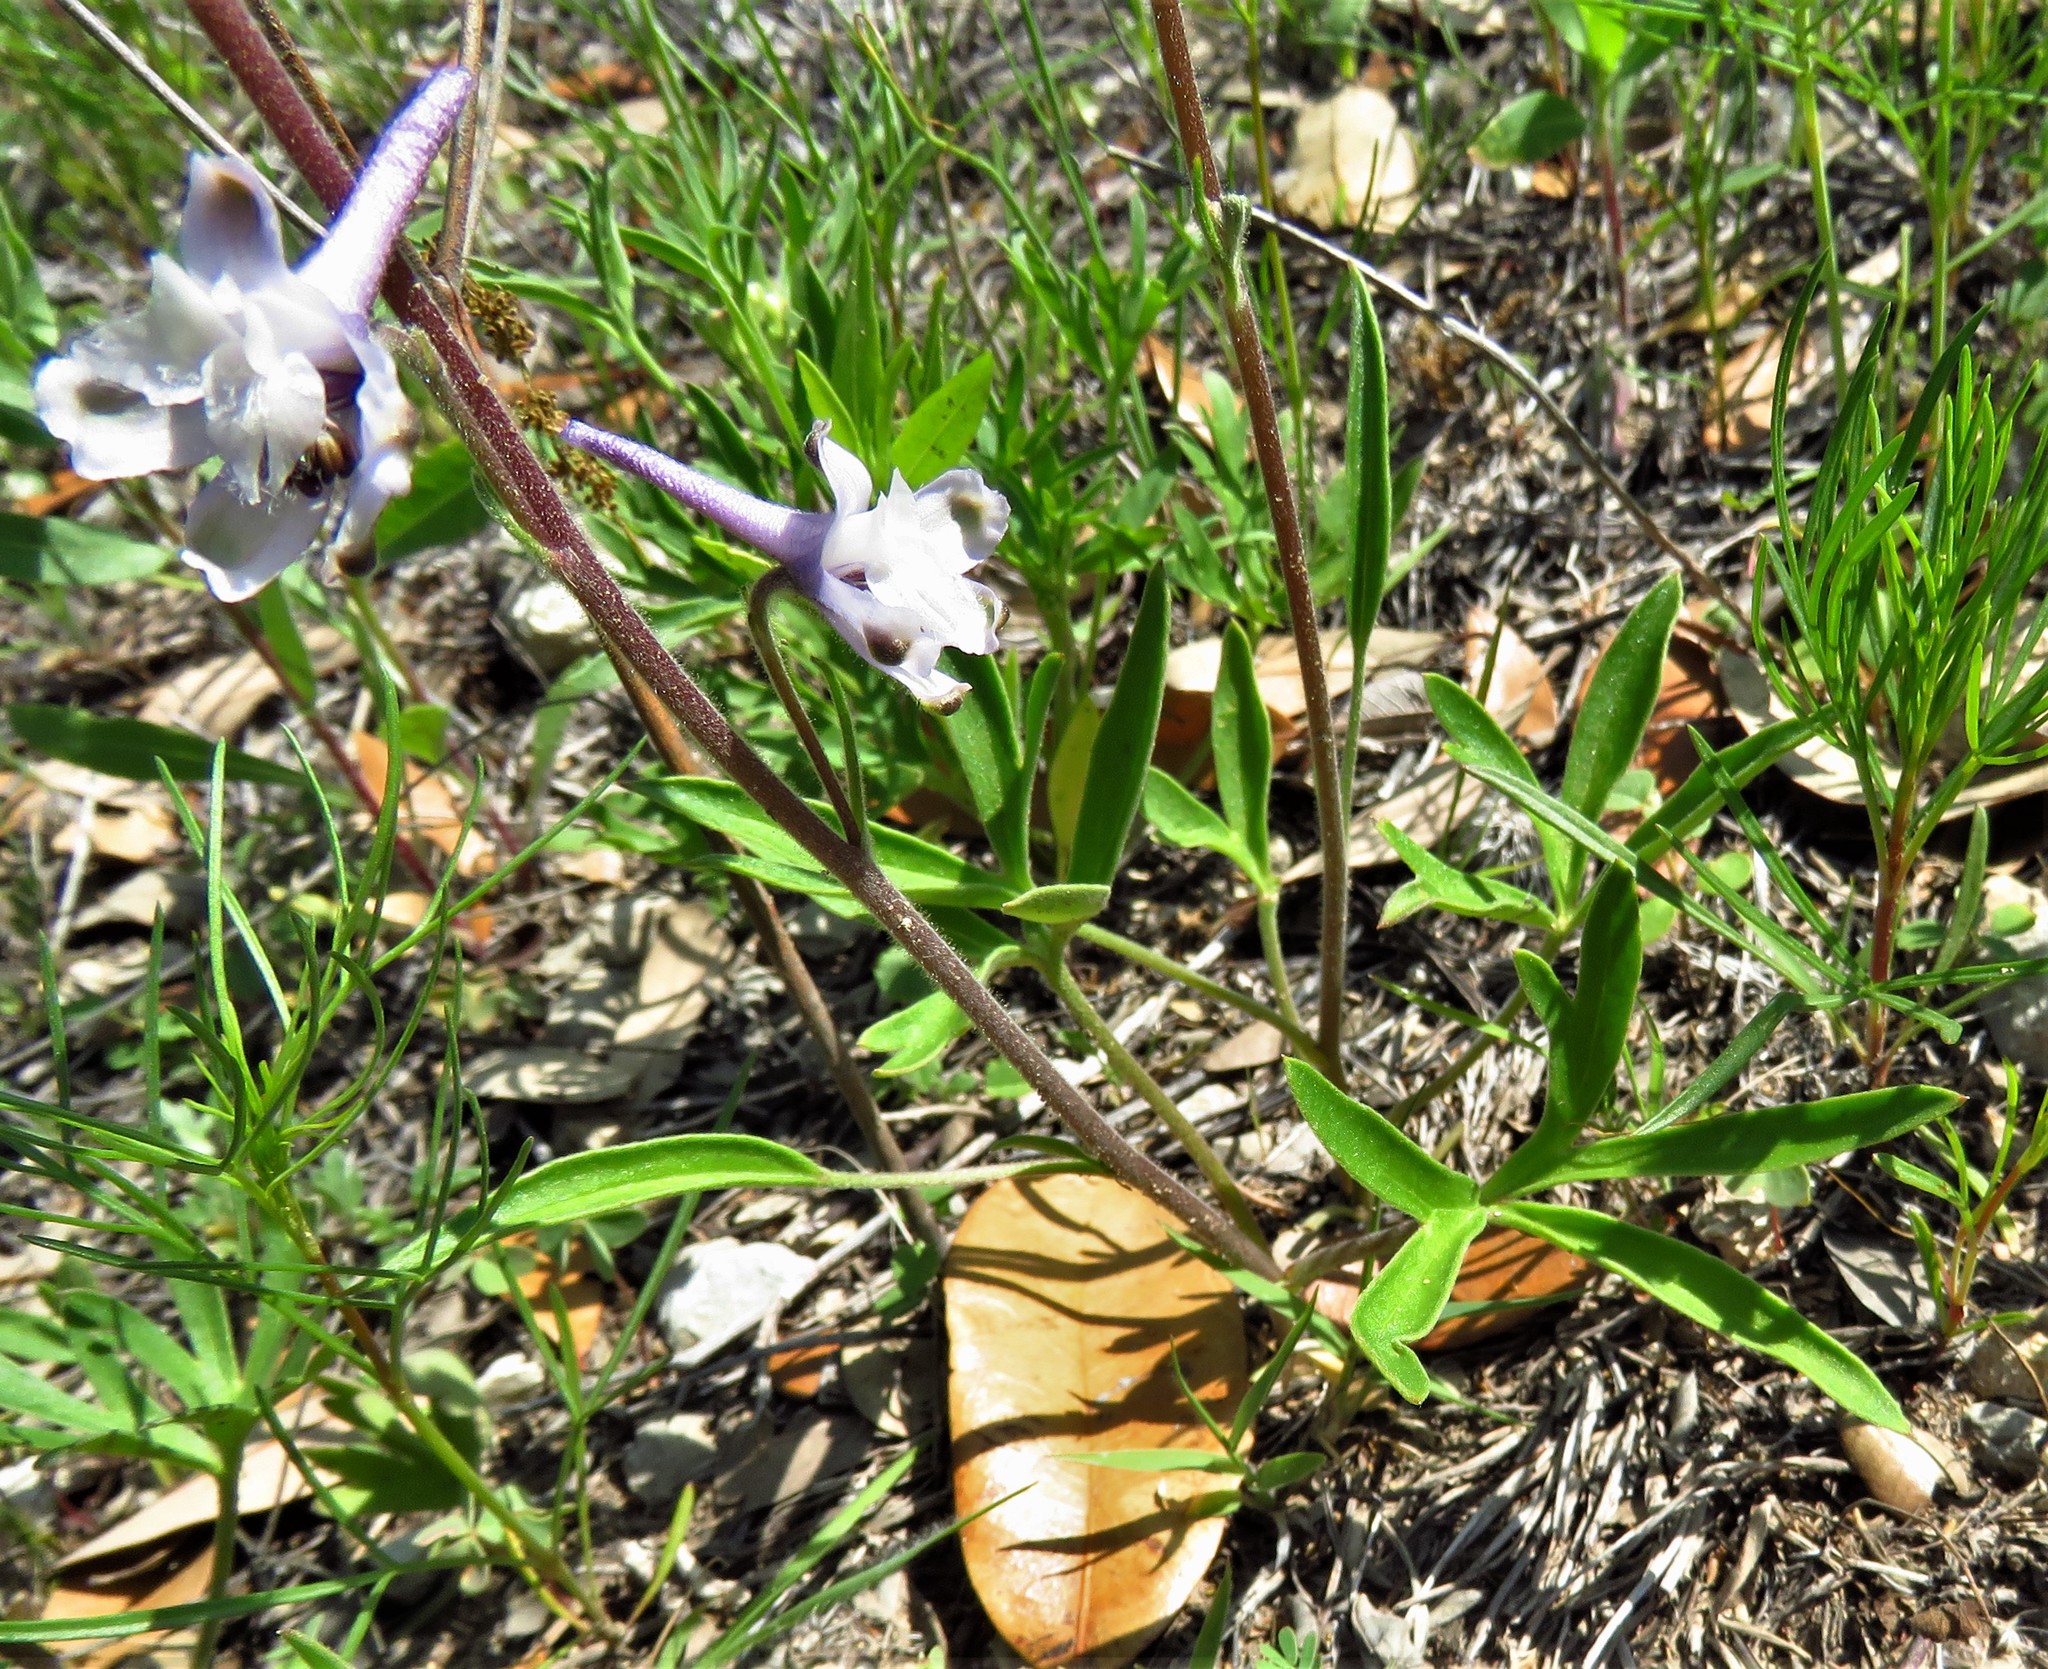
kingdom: Plantae
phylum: Tracheophyta
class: Magnoliopsida
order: Ranunculales
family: Ranunculaceae
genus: Delphinium
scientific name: Delphinium carolinianum
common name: Carolina larkspur
